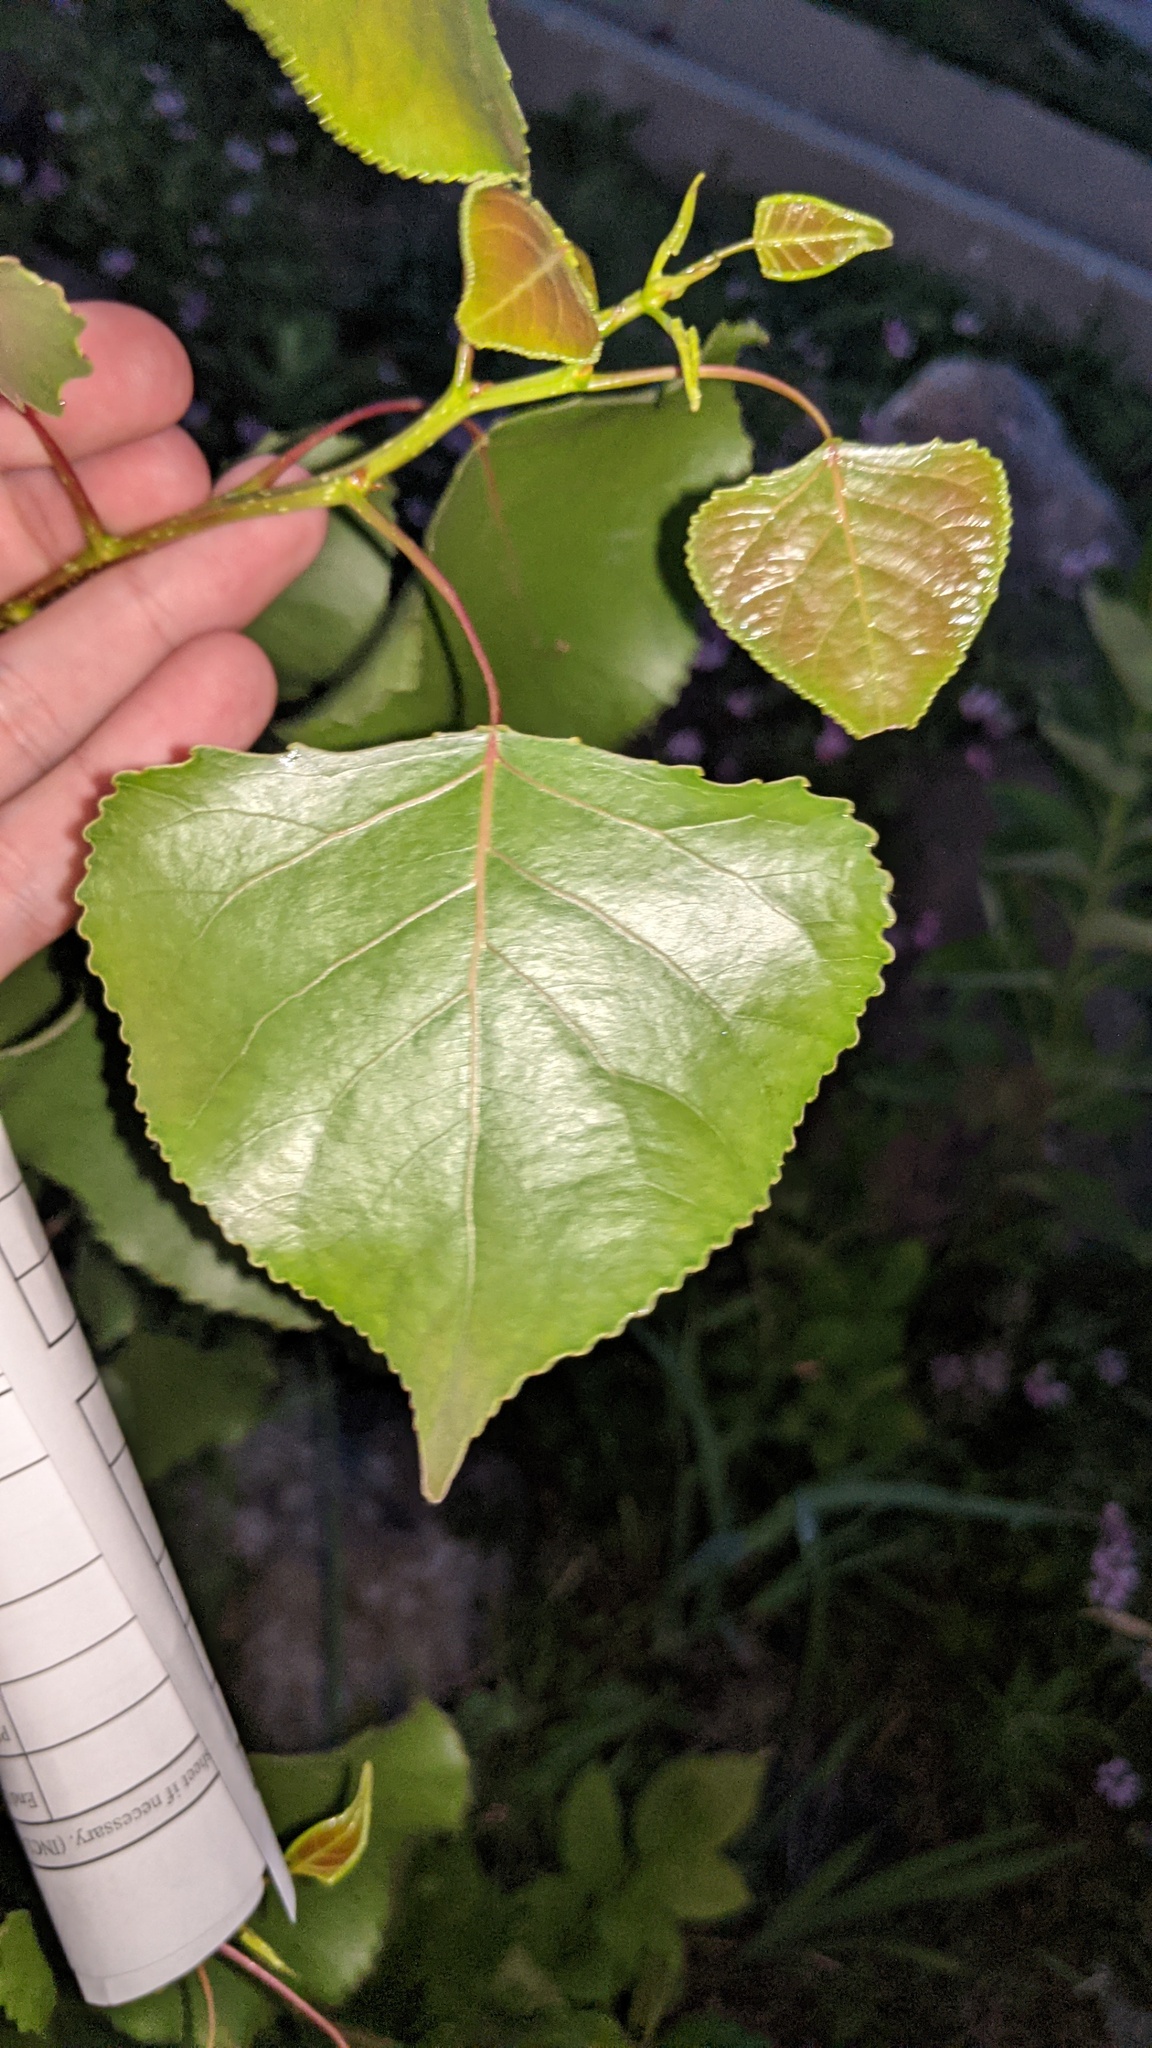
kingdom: Plantae
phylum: Tracheophyta
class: Magnoliopsida
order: Malpighiales
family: Salicaceae
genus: Populus
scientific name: Populus deltoides
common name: Eastern cottonwood
